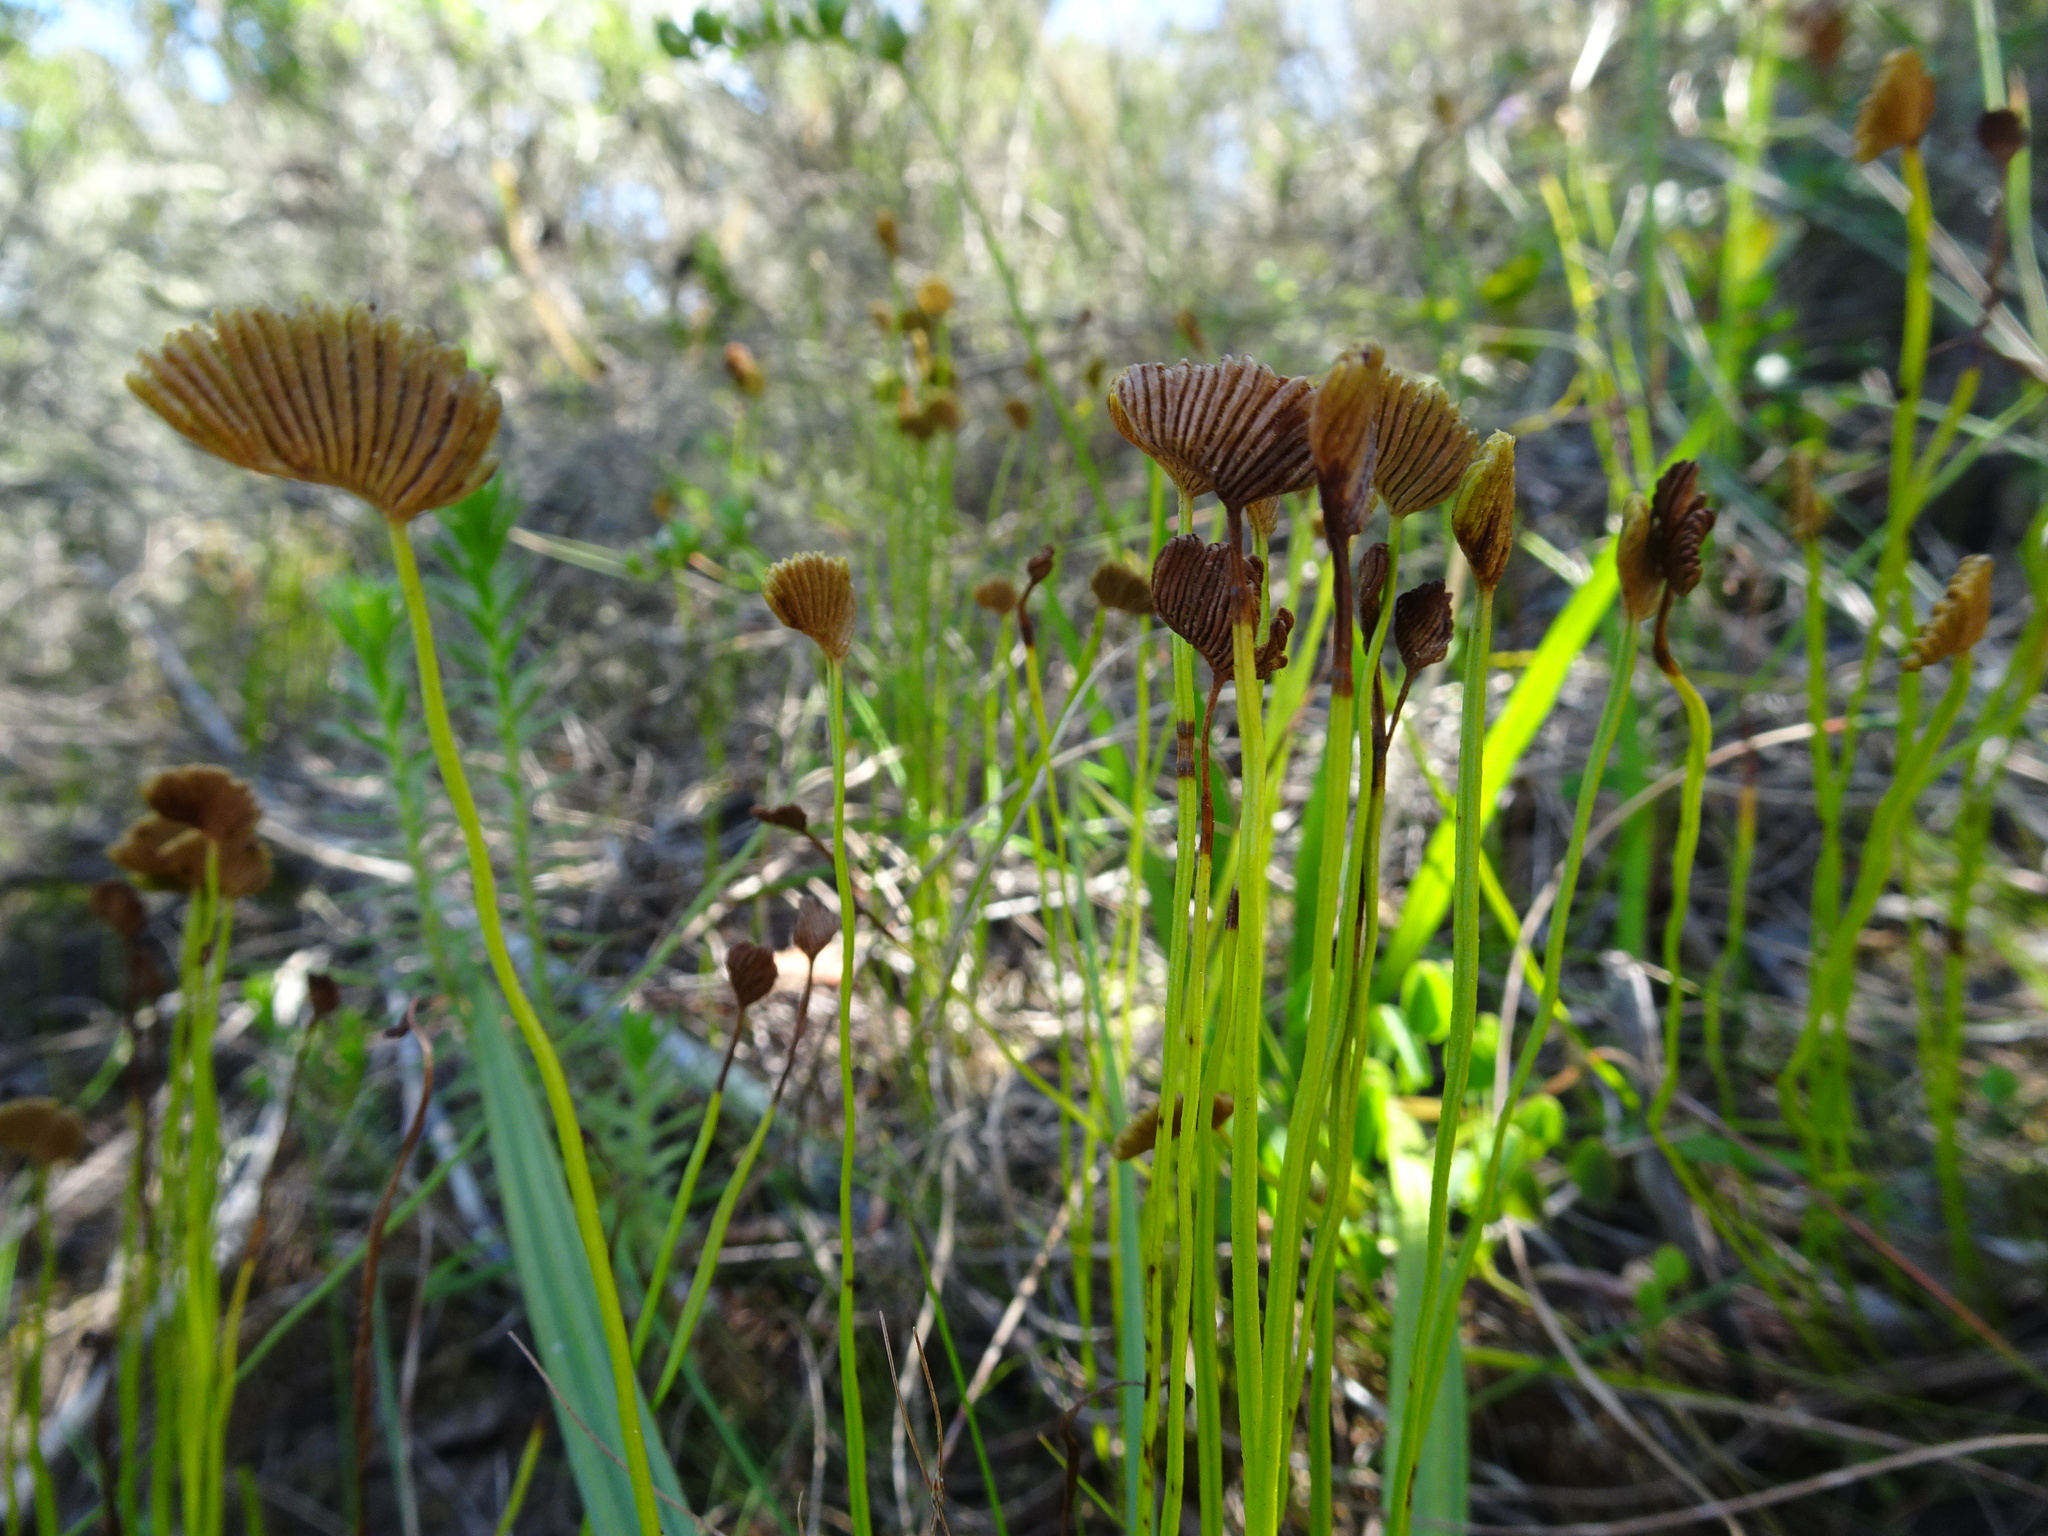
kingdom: Plantae
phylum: Tracheophyta
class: Polypodiopsida
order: Schizaeales
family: Schizaeaceae
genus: Schizaea
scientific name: Schizaea pectinata
